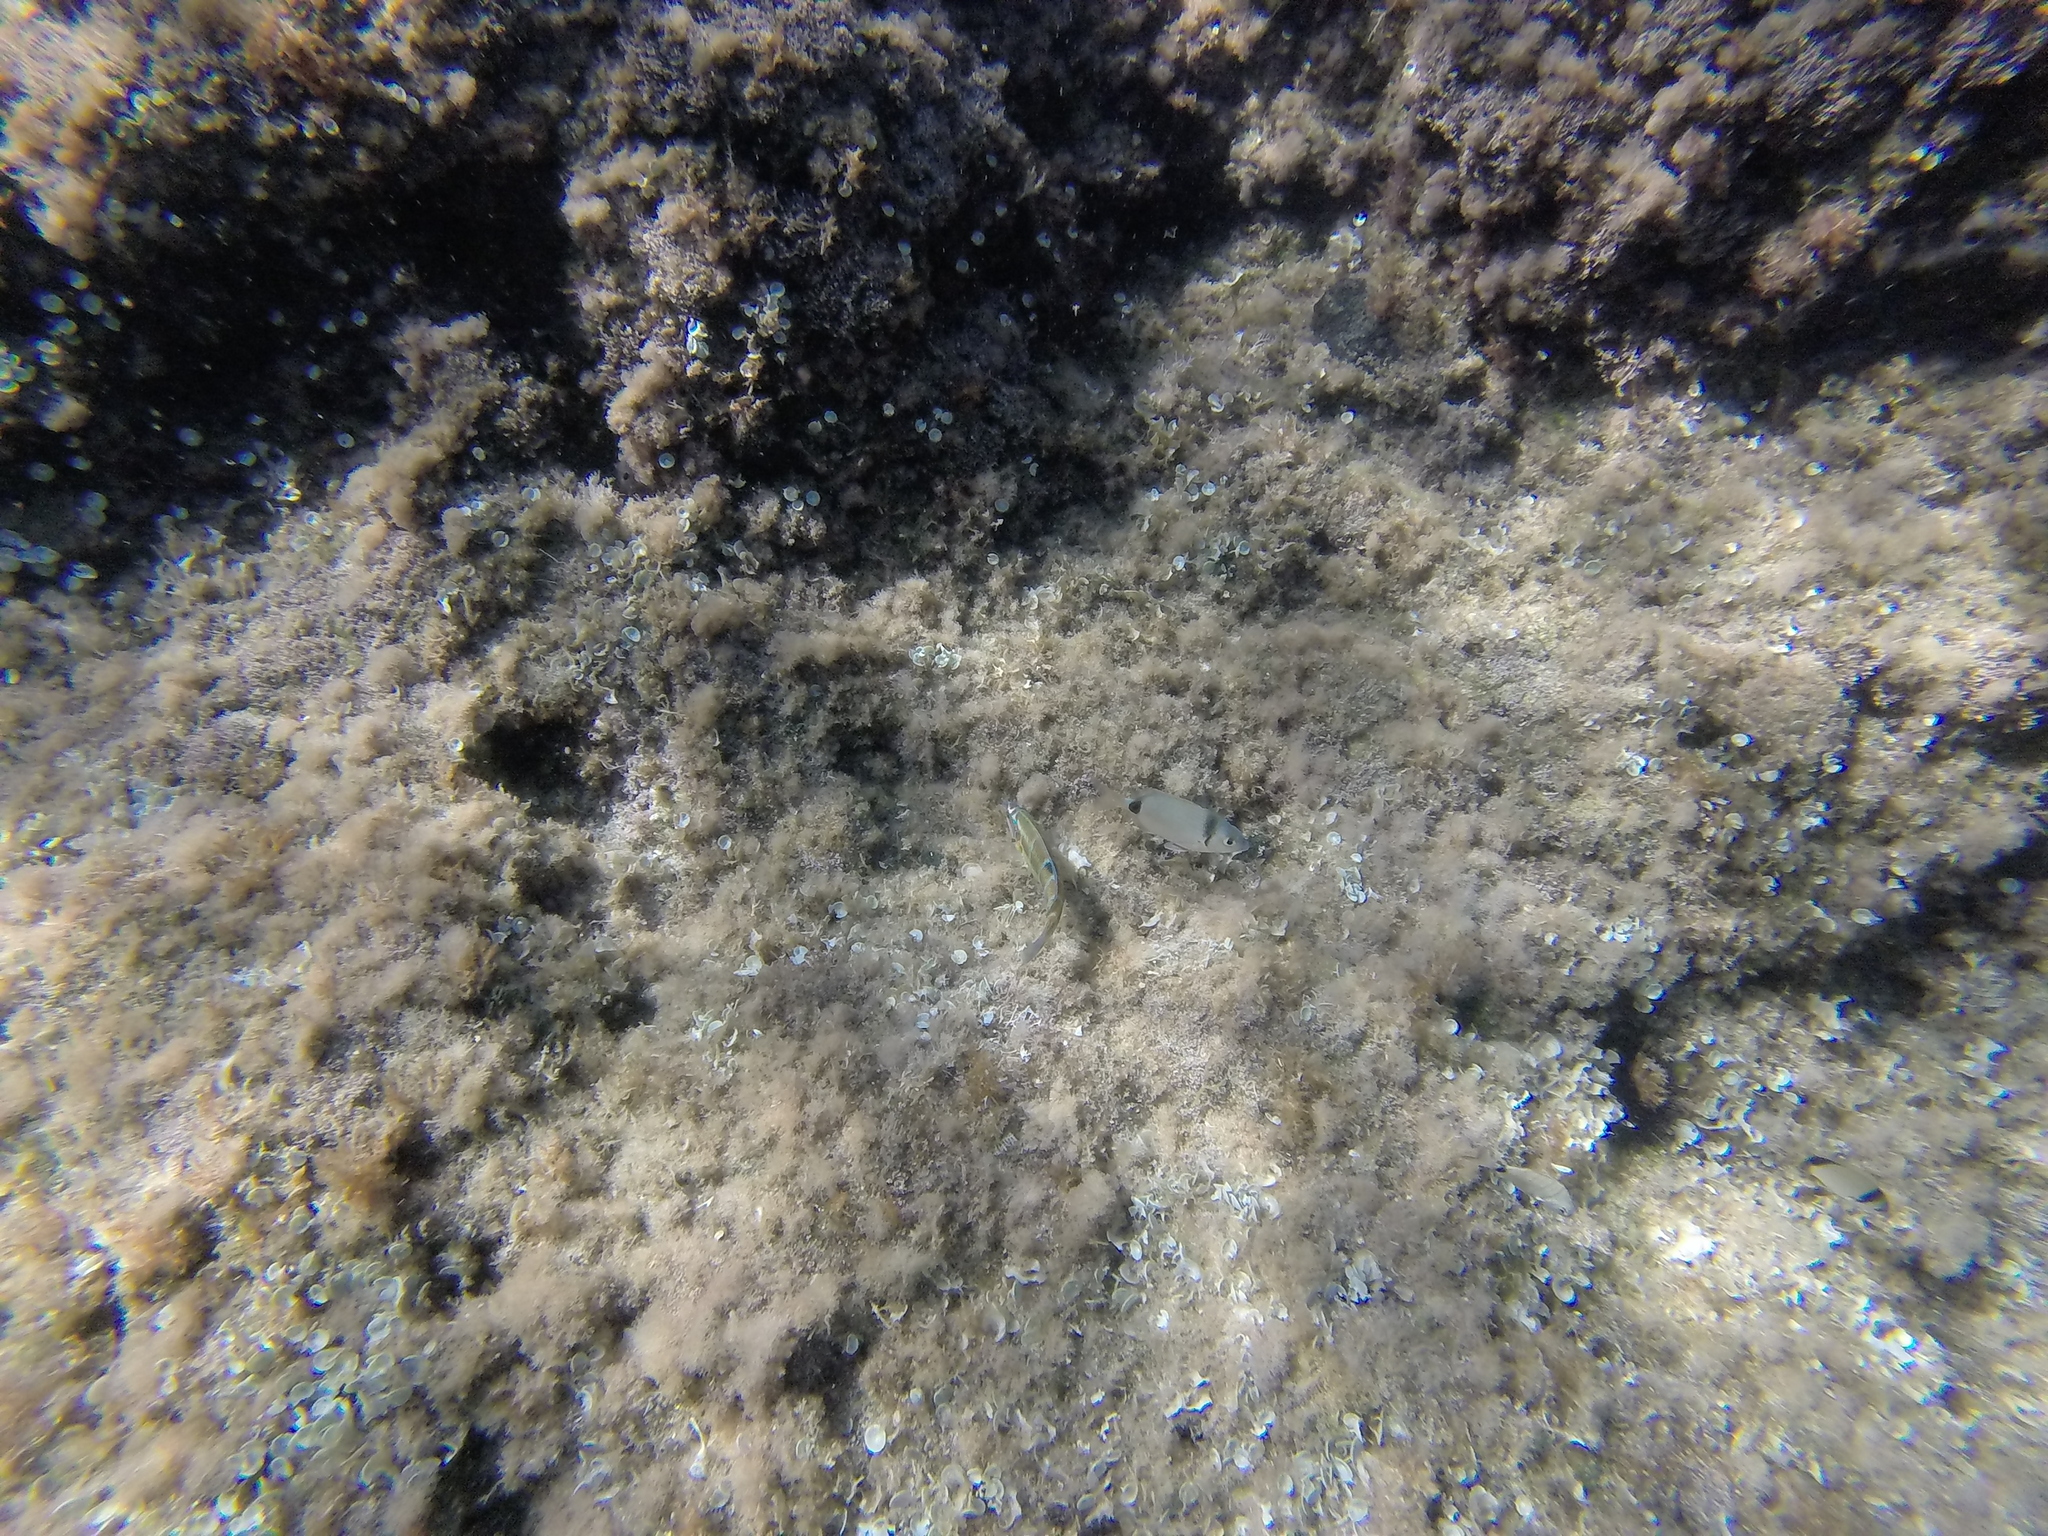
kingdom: Animalia
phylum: Chordata
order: Perciformes
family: Sparidae
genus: Diplodus
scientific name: Diplodus vulgaris
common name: Common two-banded seabream
